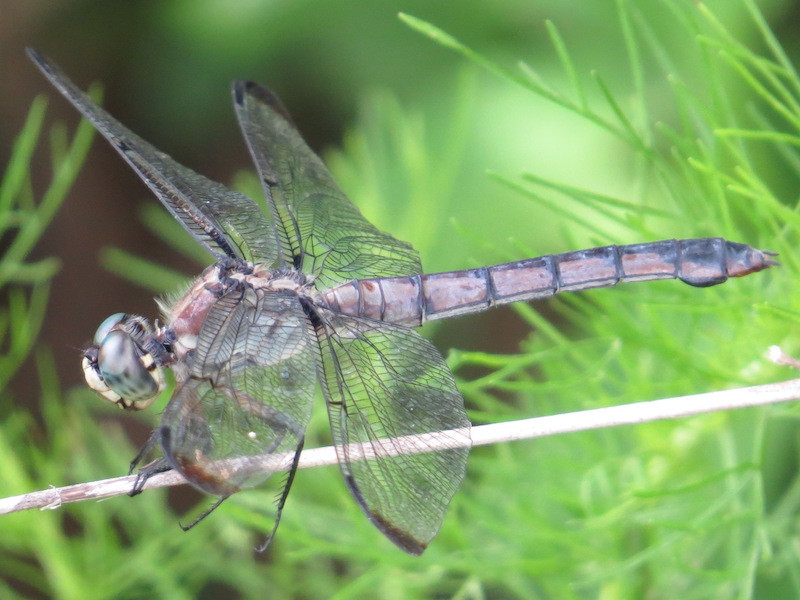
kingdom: Animalia
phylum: Arthropoda
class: Insecta
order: Odonata
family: Libellulidae
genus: Libellula
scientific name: Libellula vibrans
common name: Great blue skimmer
